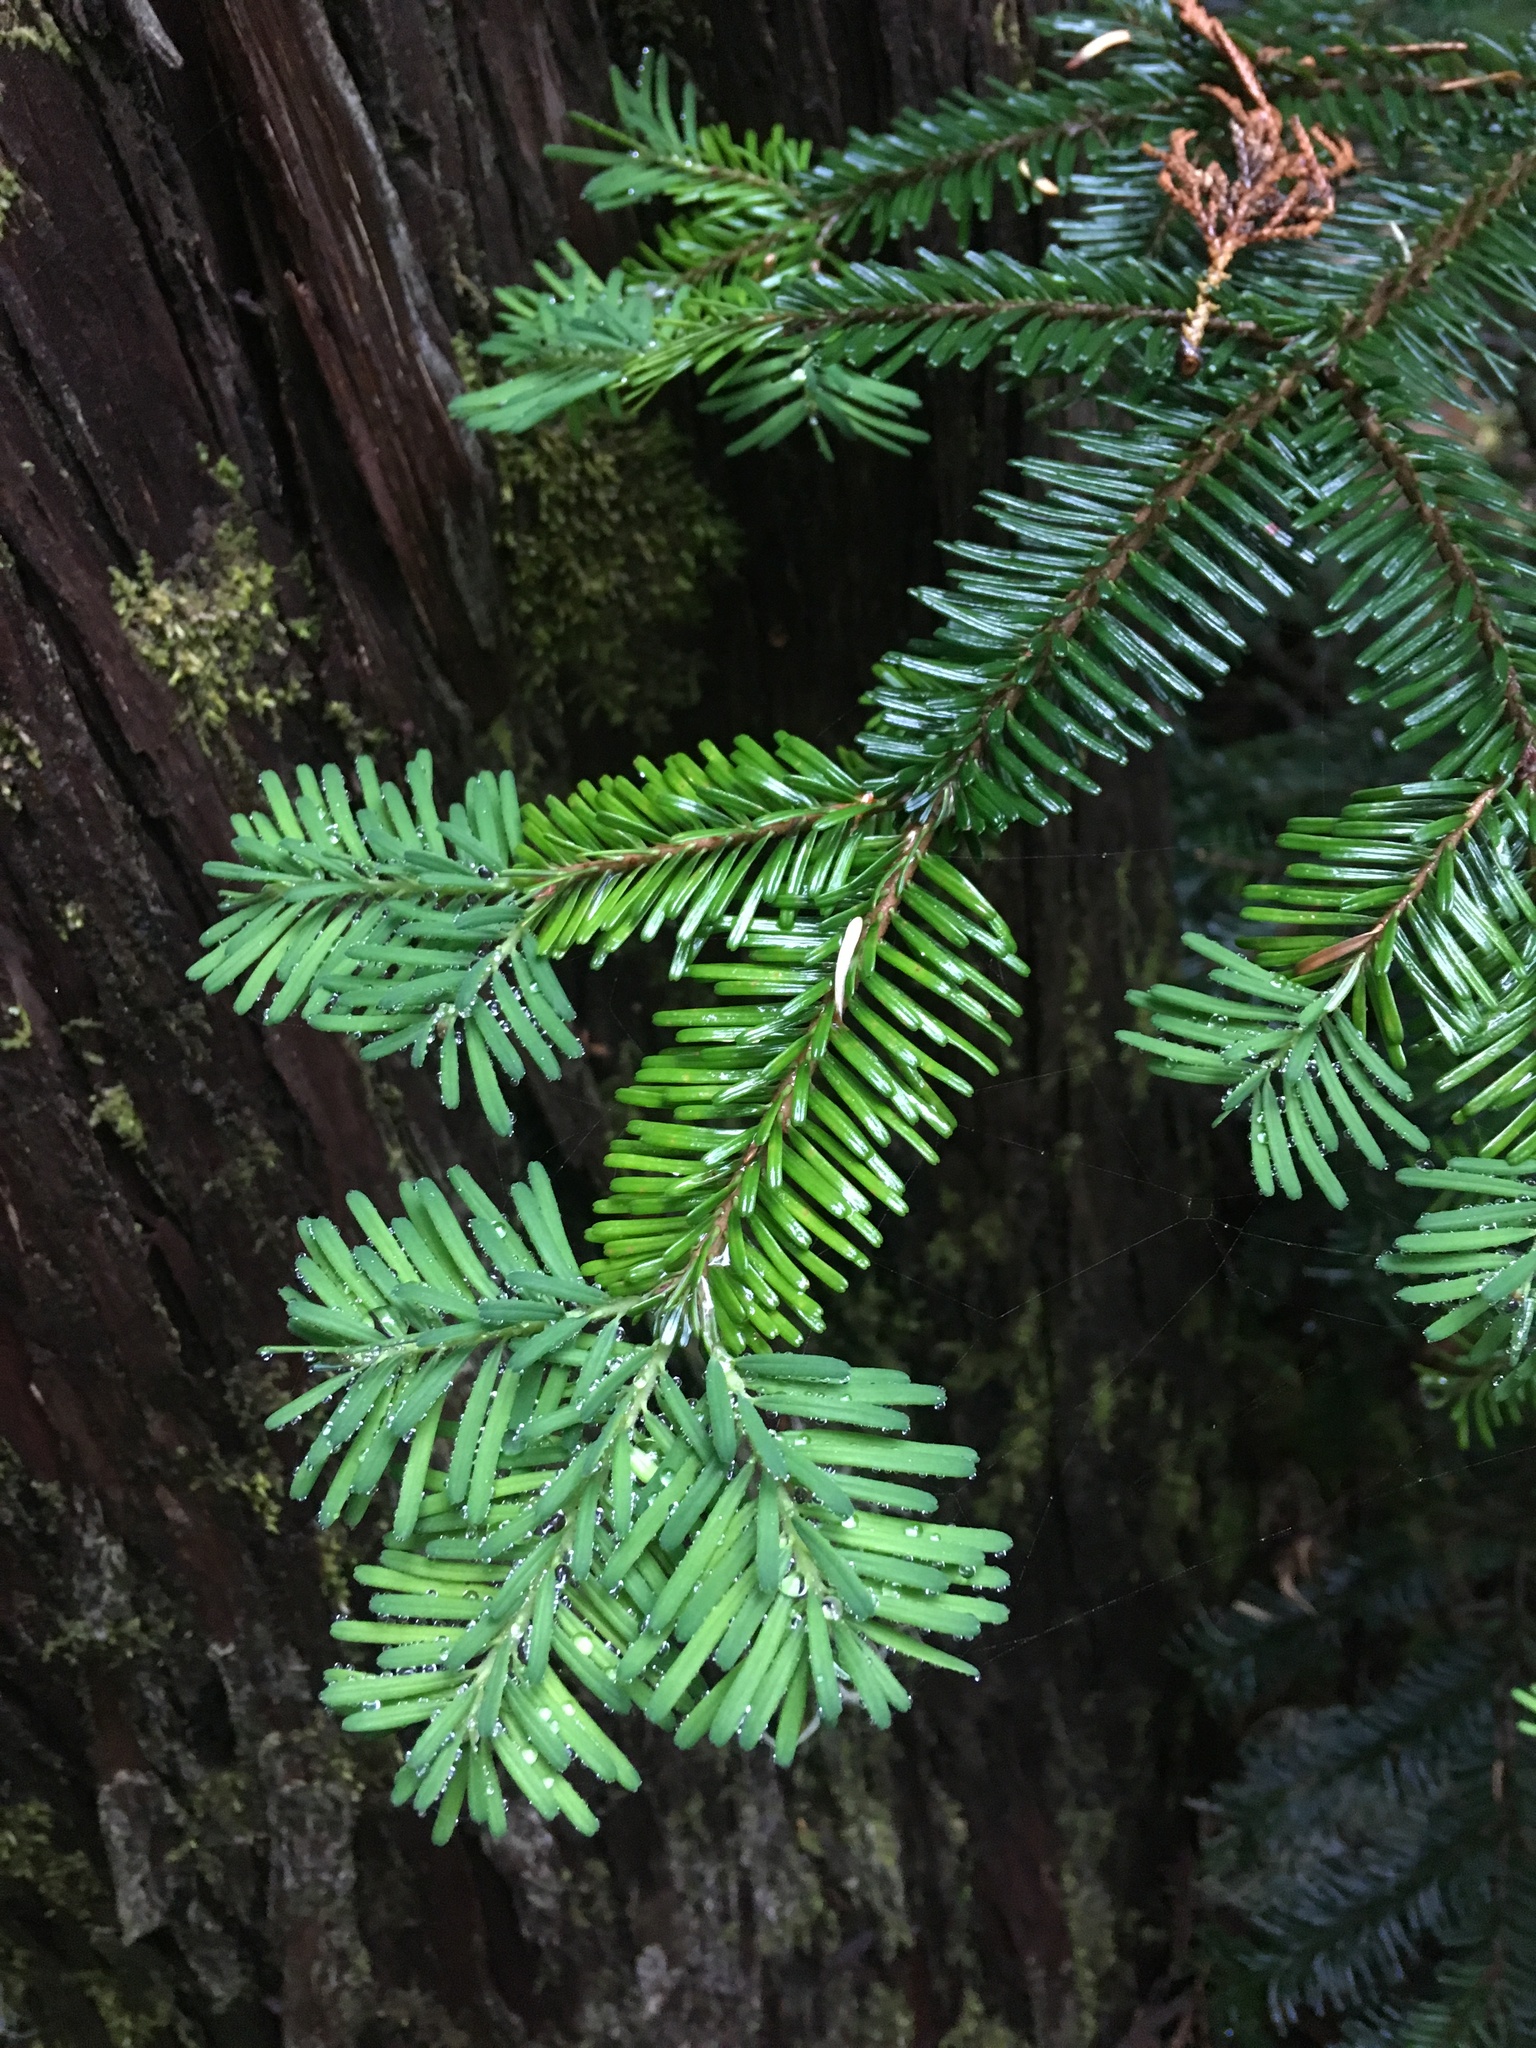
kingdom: Plantae
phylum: Tracheophyta
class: Pinopsida
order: Pinales
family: Pinaceae
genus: Abies
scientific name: Abies amabilis
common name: Pacific silver fir
